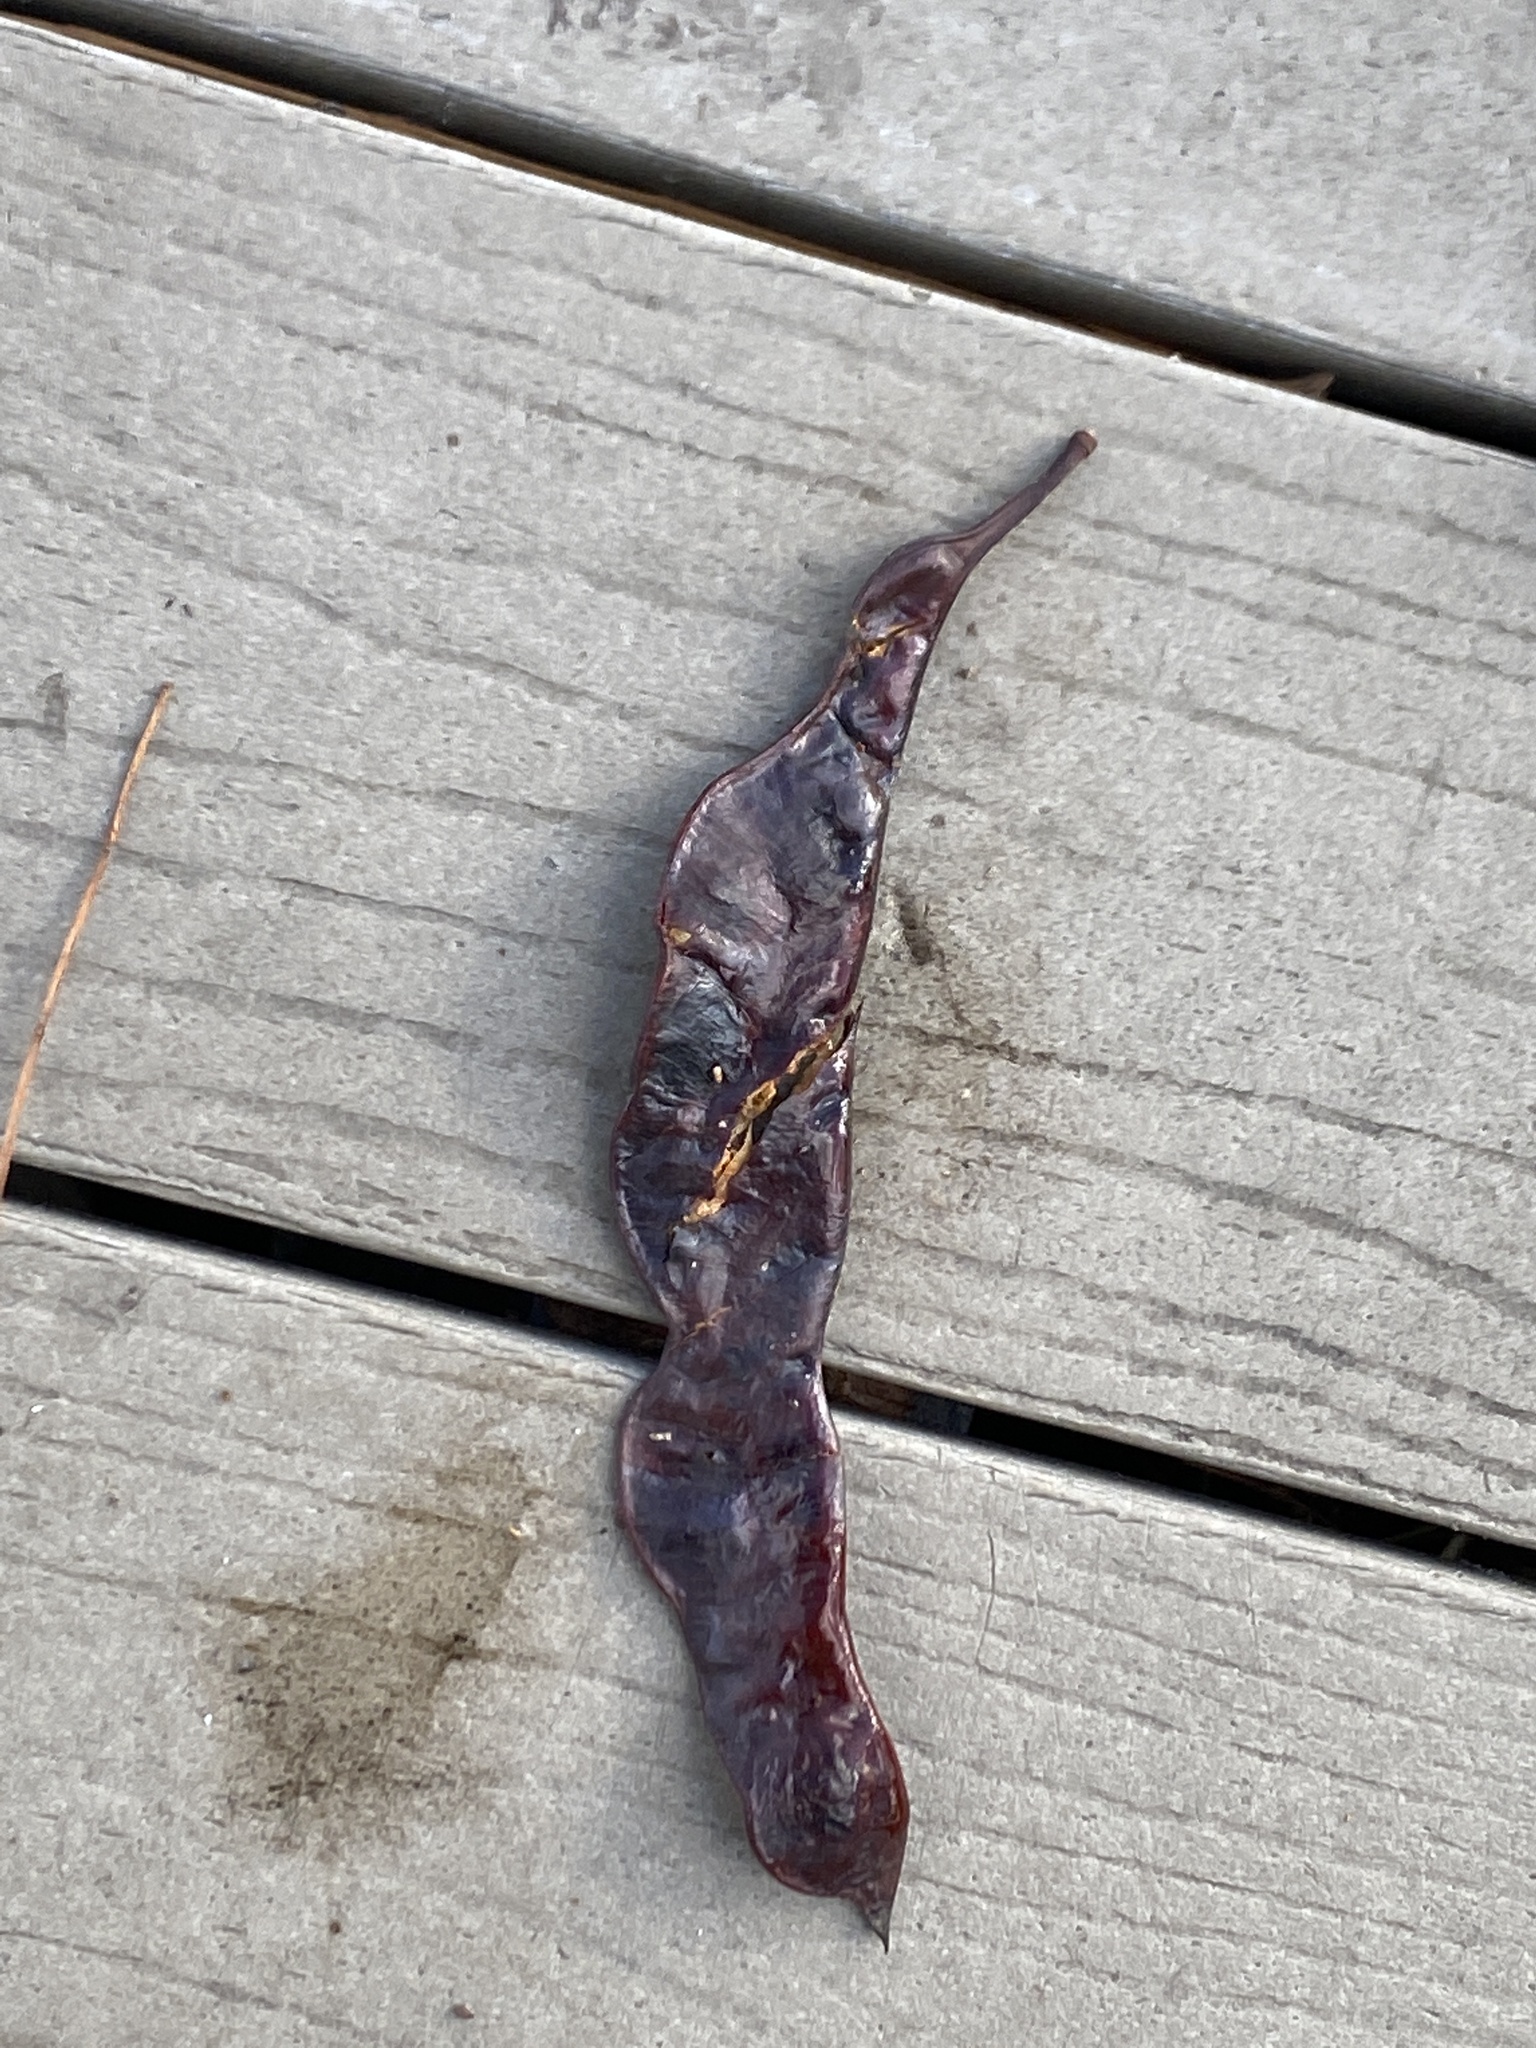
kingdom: Plantae
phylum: Tracheophyta
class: Magnoliopsida
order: Fabales
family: Fabaceae
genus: Gleditsia
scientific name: Gleditsia triacanthos
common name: Common honeylocust
